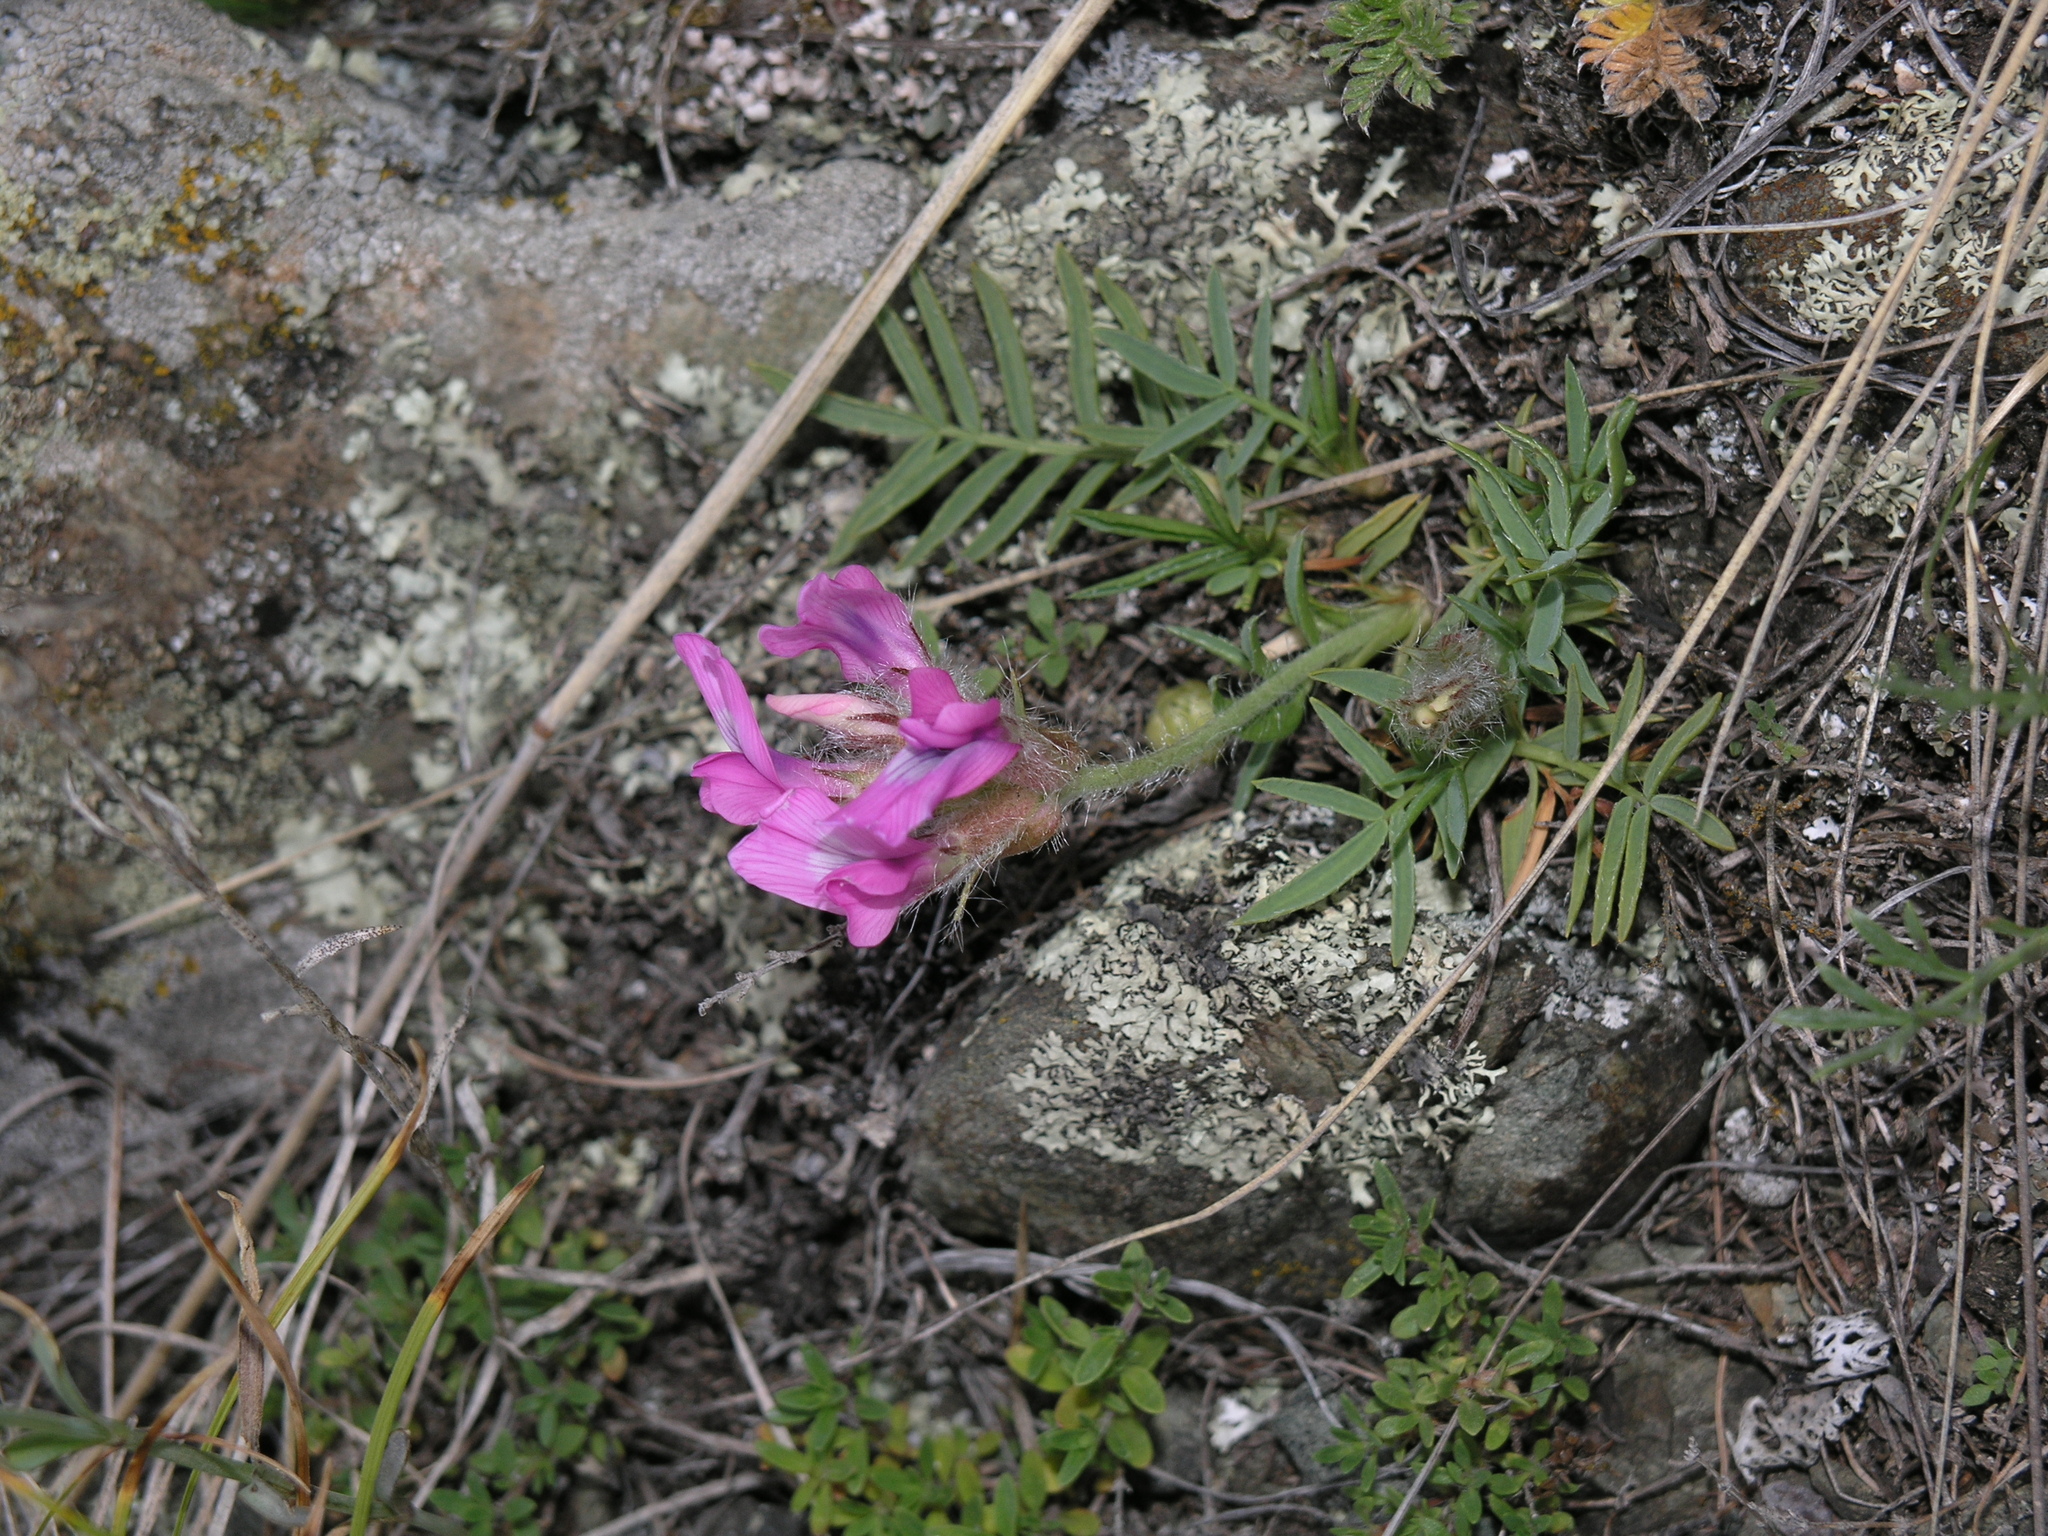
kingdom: Plantae
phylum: Tracheophyta
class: Magnoliopsida
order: Fabales
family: Fabaceae
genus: Oxytropis
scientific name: Oxytropis setosa
